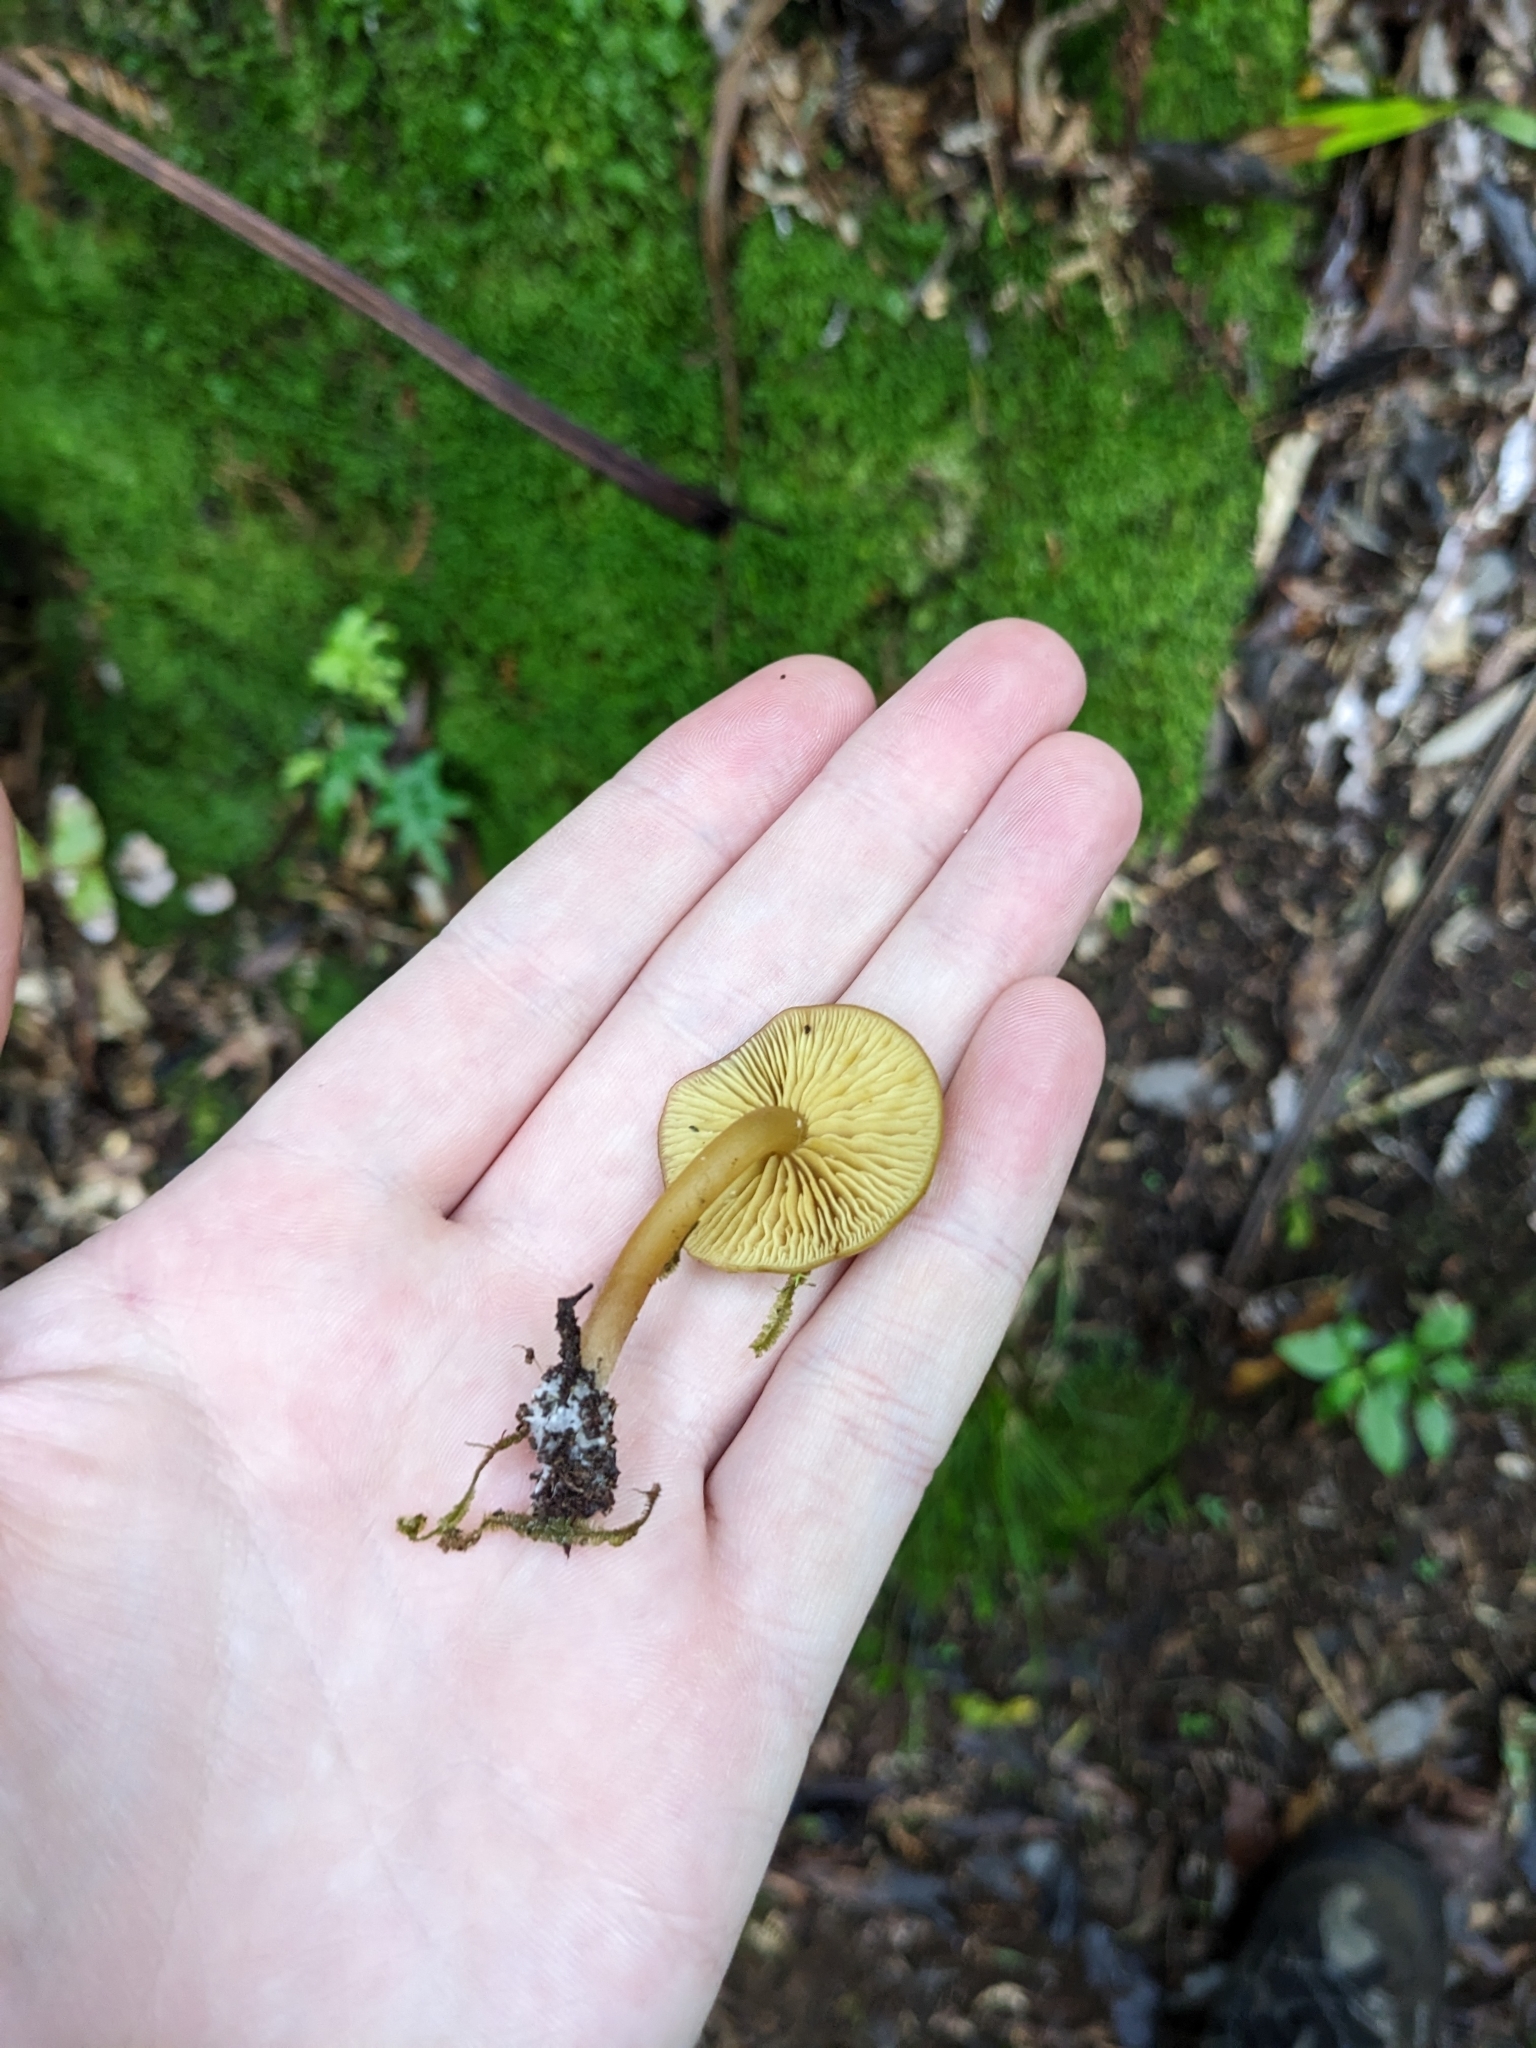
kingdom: Fungi
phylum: Basidiomycota
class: Agaricomycetes
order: Agaricales
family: Callistosporiaceae
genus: Callistosporium
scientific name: Callistosporium
